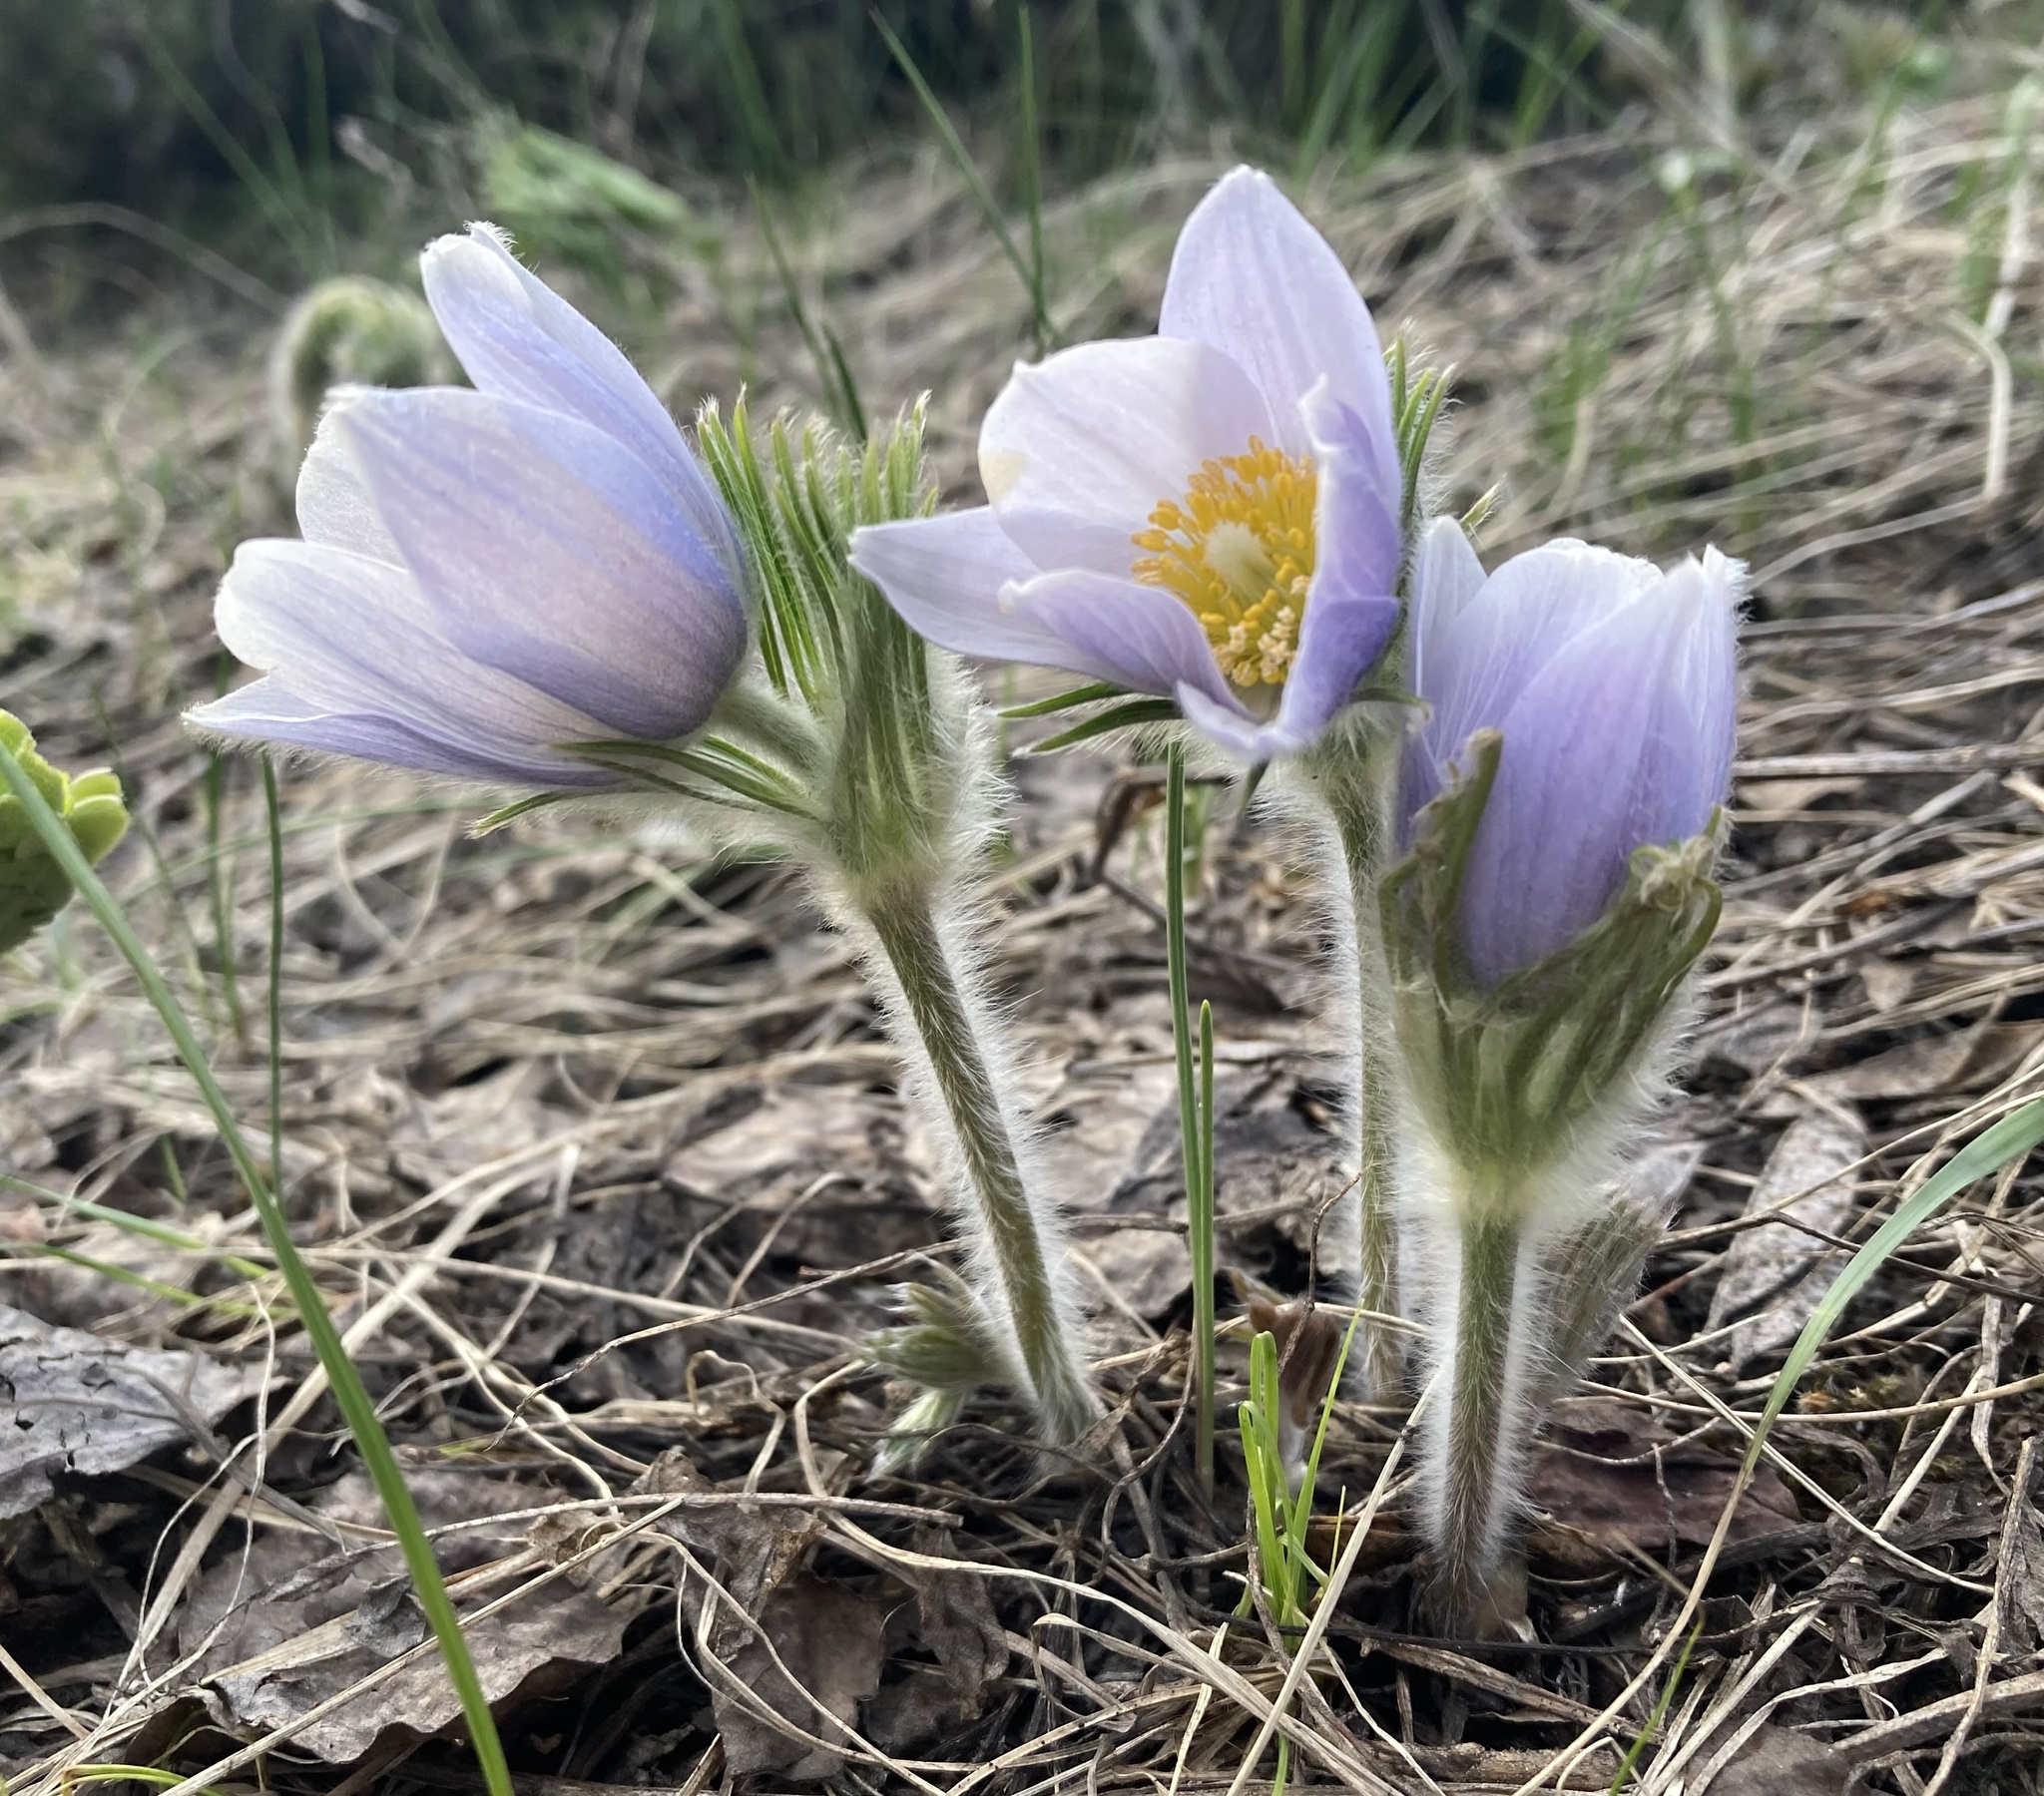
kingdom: Plantae
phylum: Tracheophyta
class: Magnoliopsida
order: Ranunculales
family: Ranunculaceae
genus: Pulsatilla
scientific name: Pulsatilla nuttalliana
